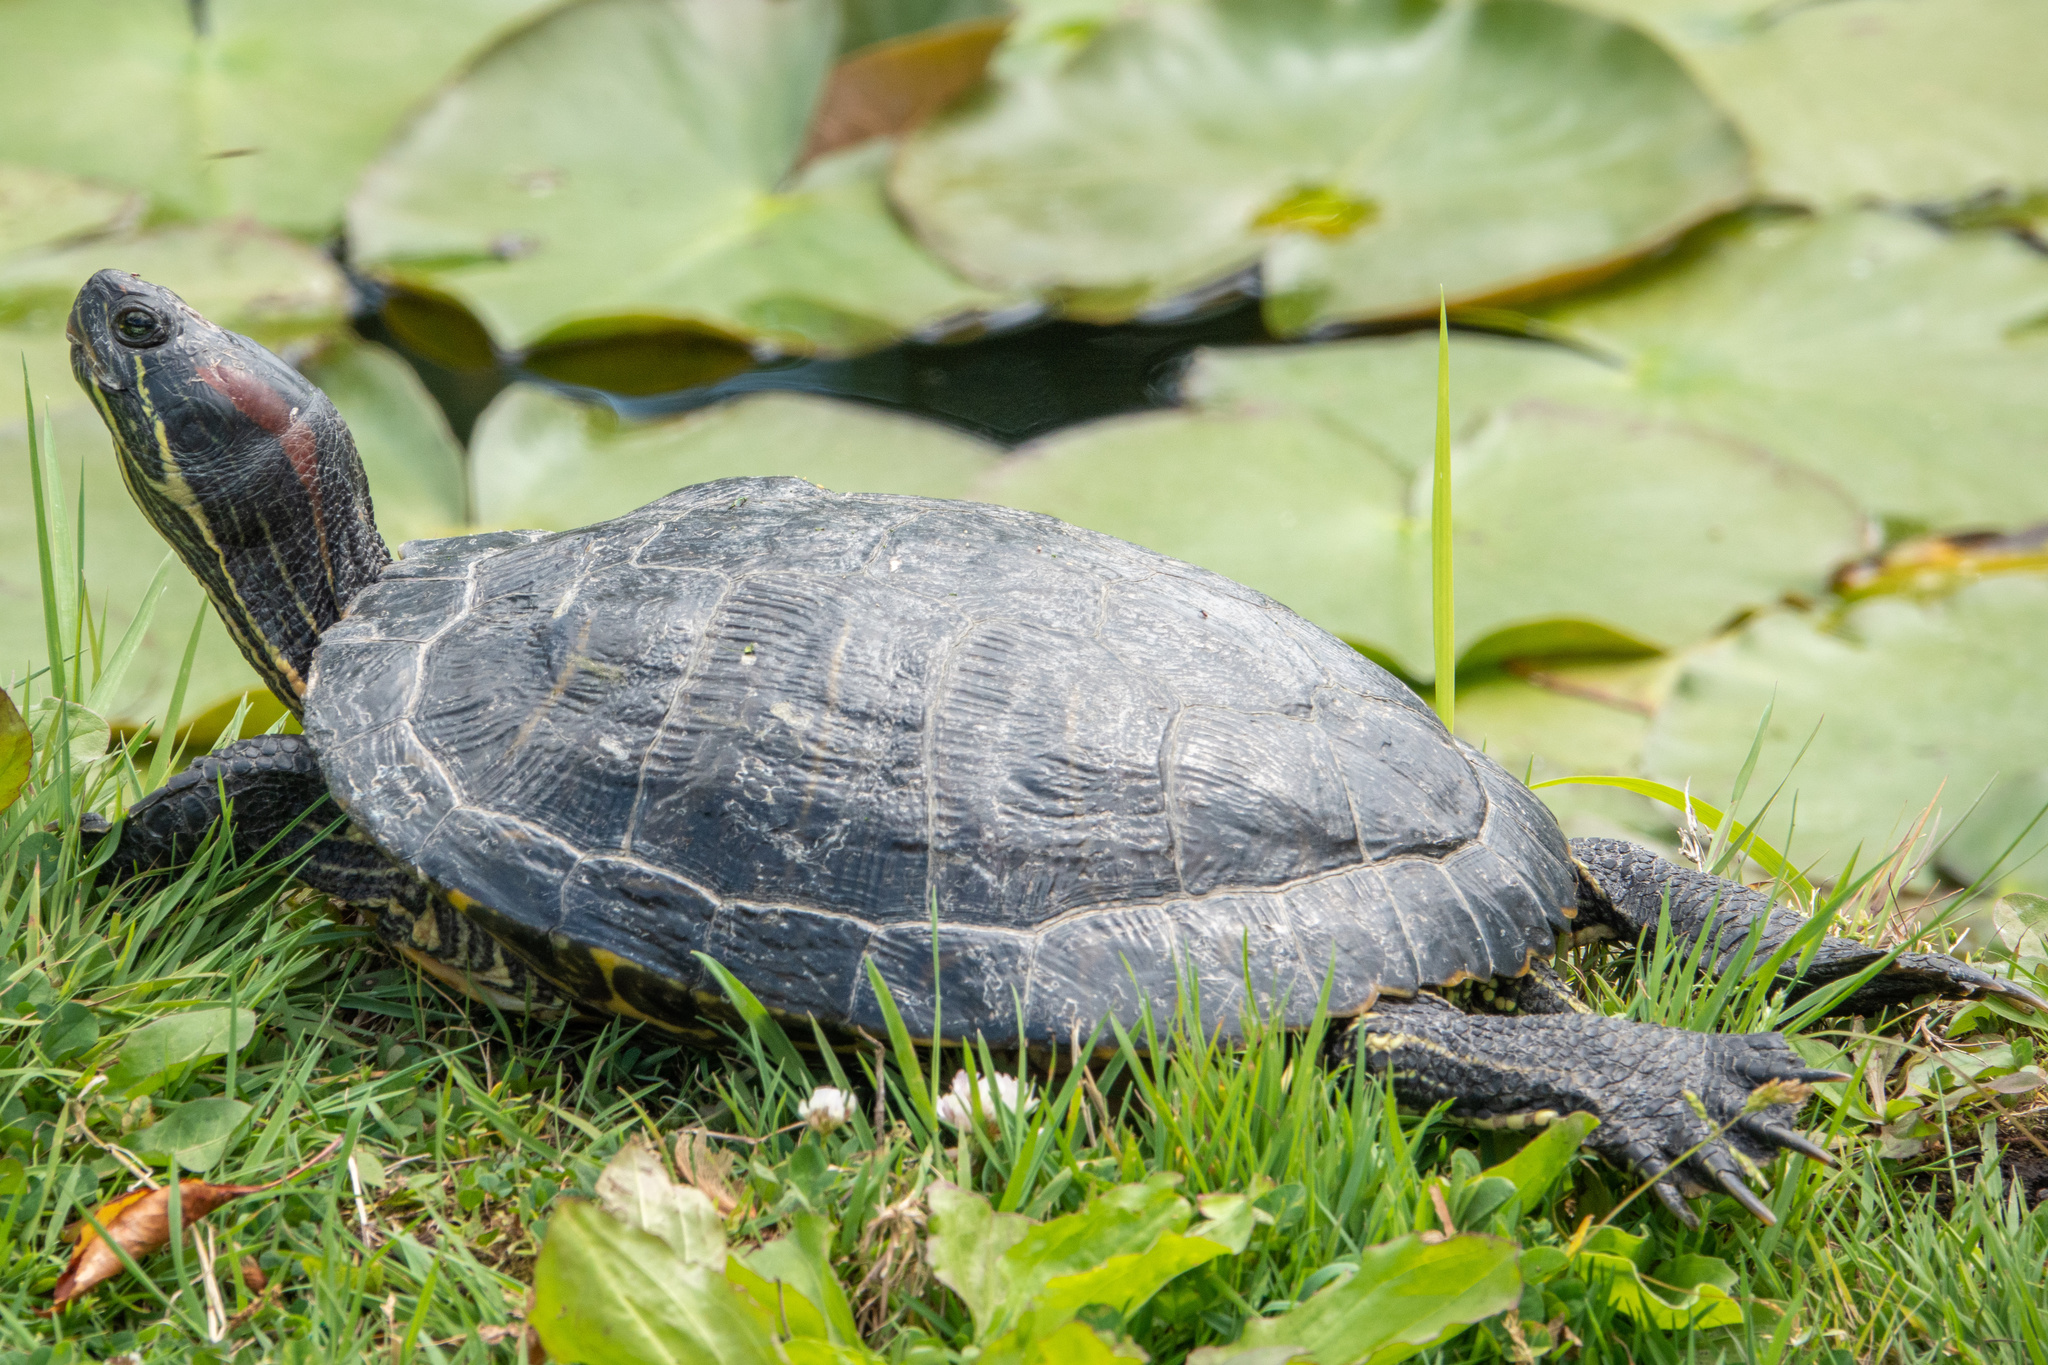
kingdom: Animalia
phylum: Chordata
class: Testudines
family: Emydidae
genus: Trachemys
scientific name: Trachemys scripta
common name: Slider
